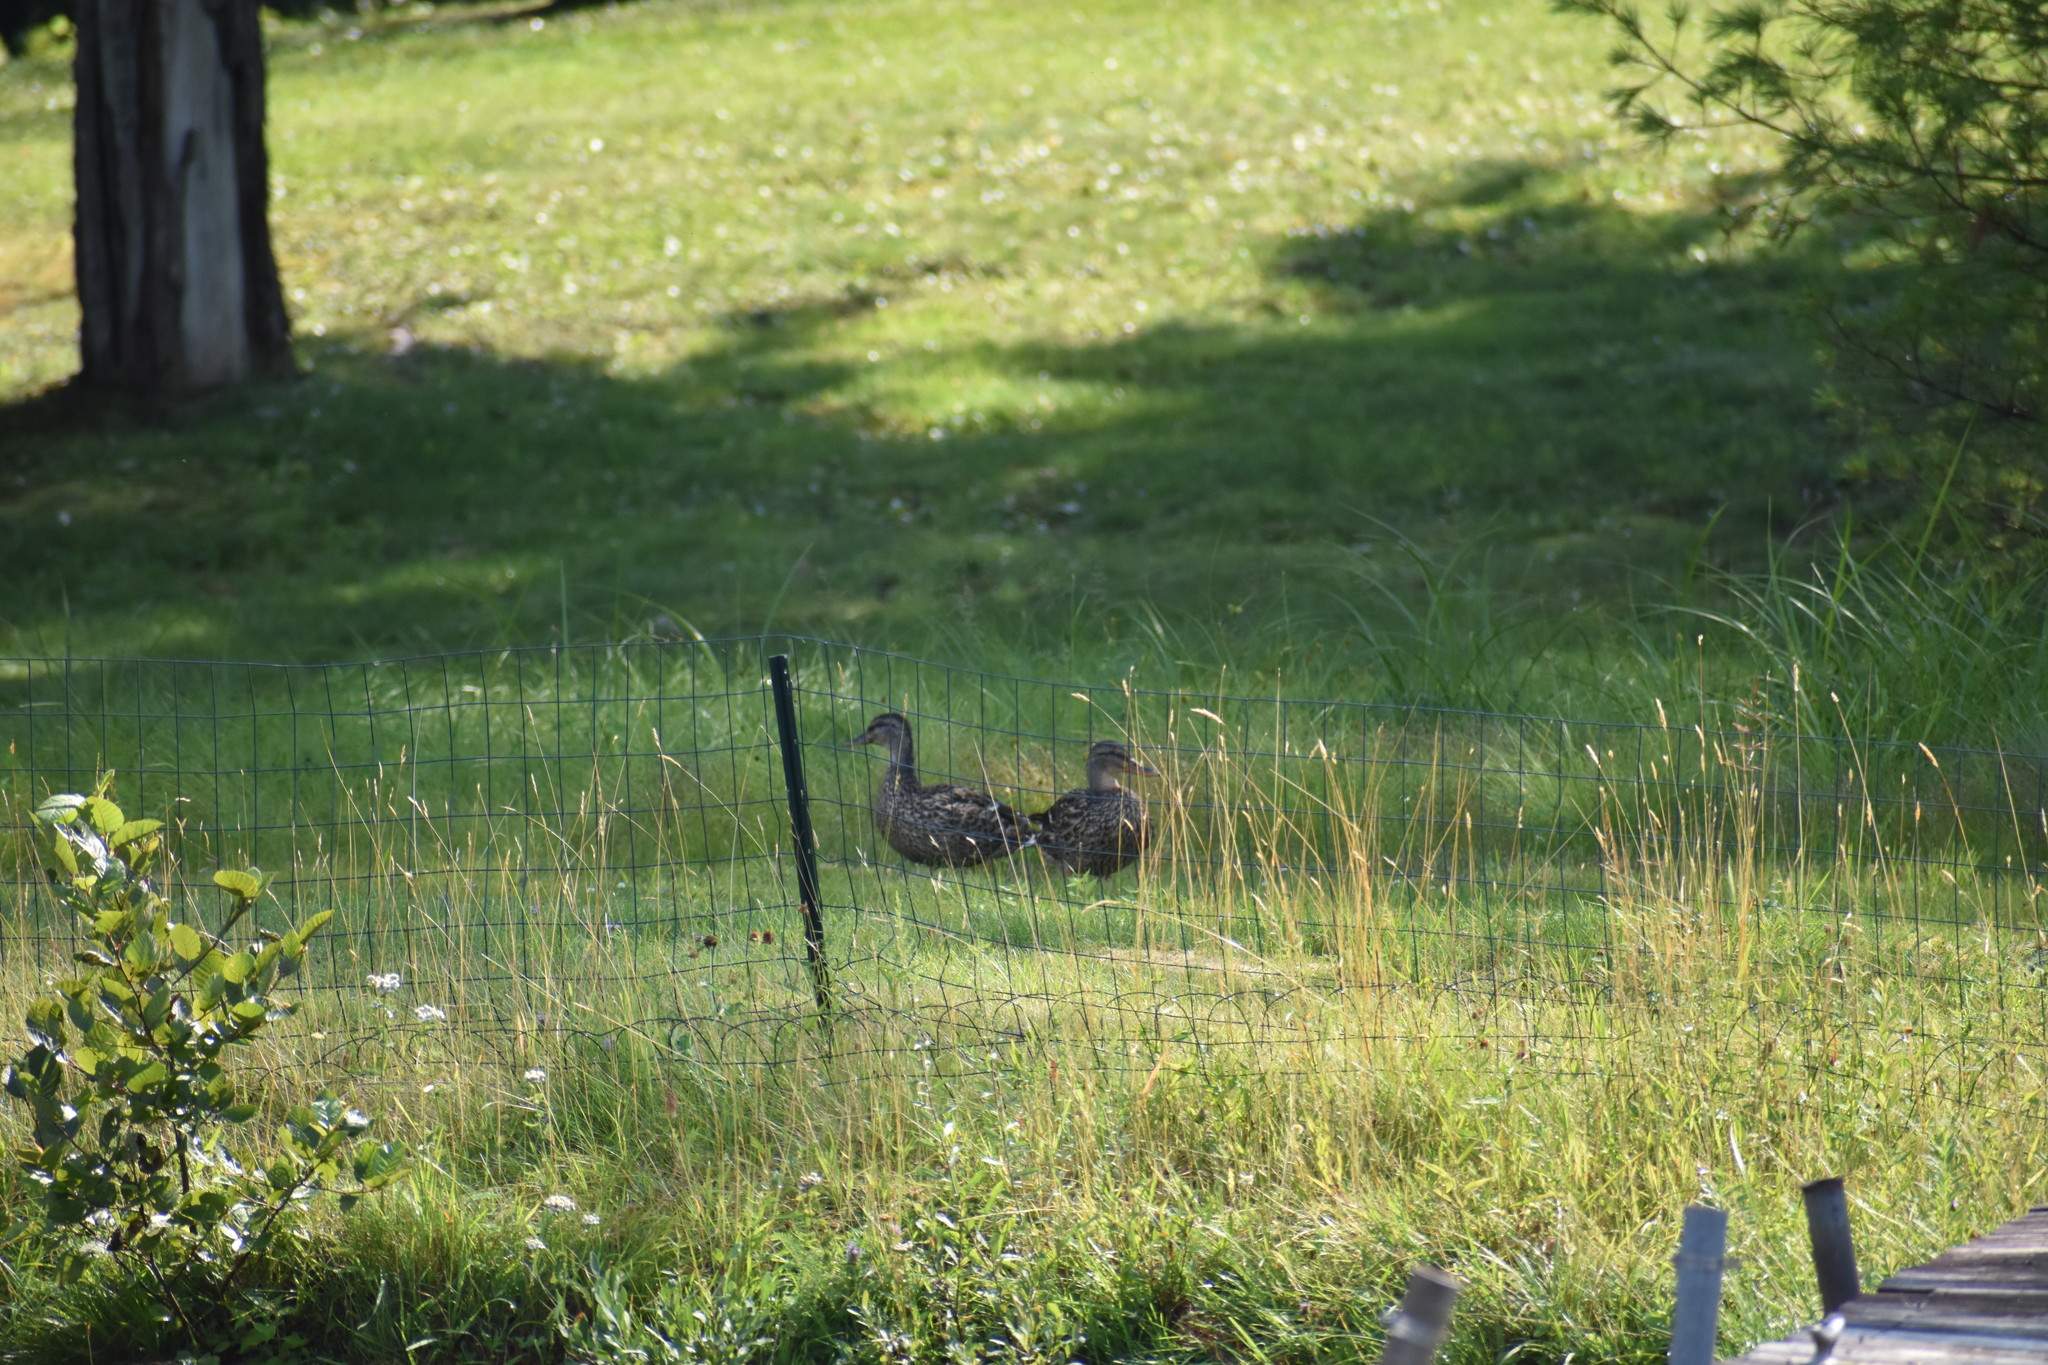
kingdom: Animalia
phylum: Chordata
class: Aves
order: Anseriformes
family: Anatidae
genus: Anas
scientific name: Anas platyrhynchos
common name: Mallard
